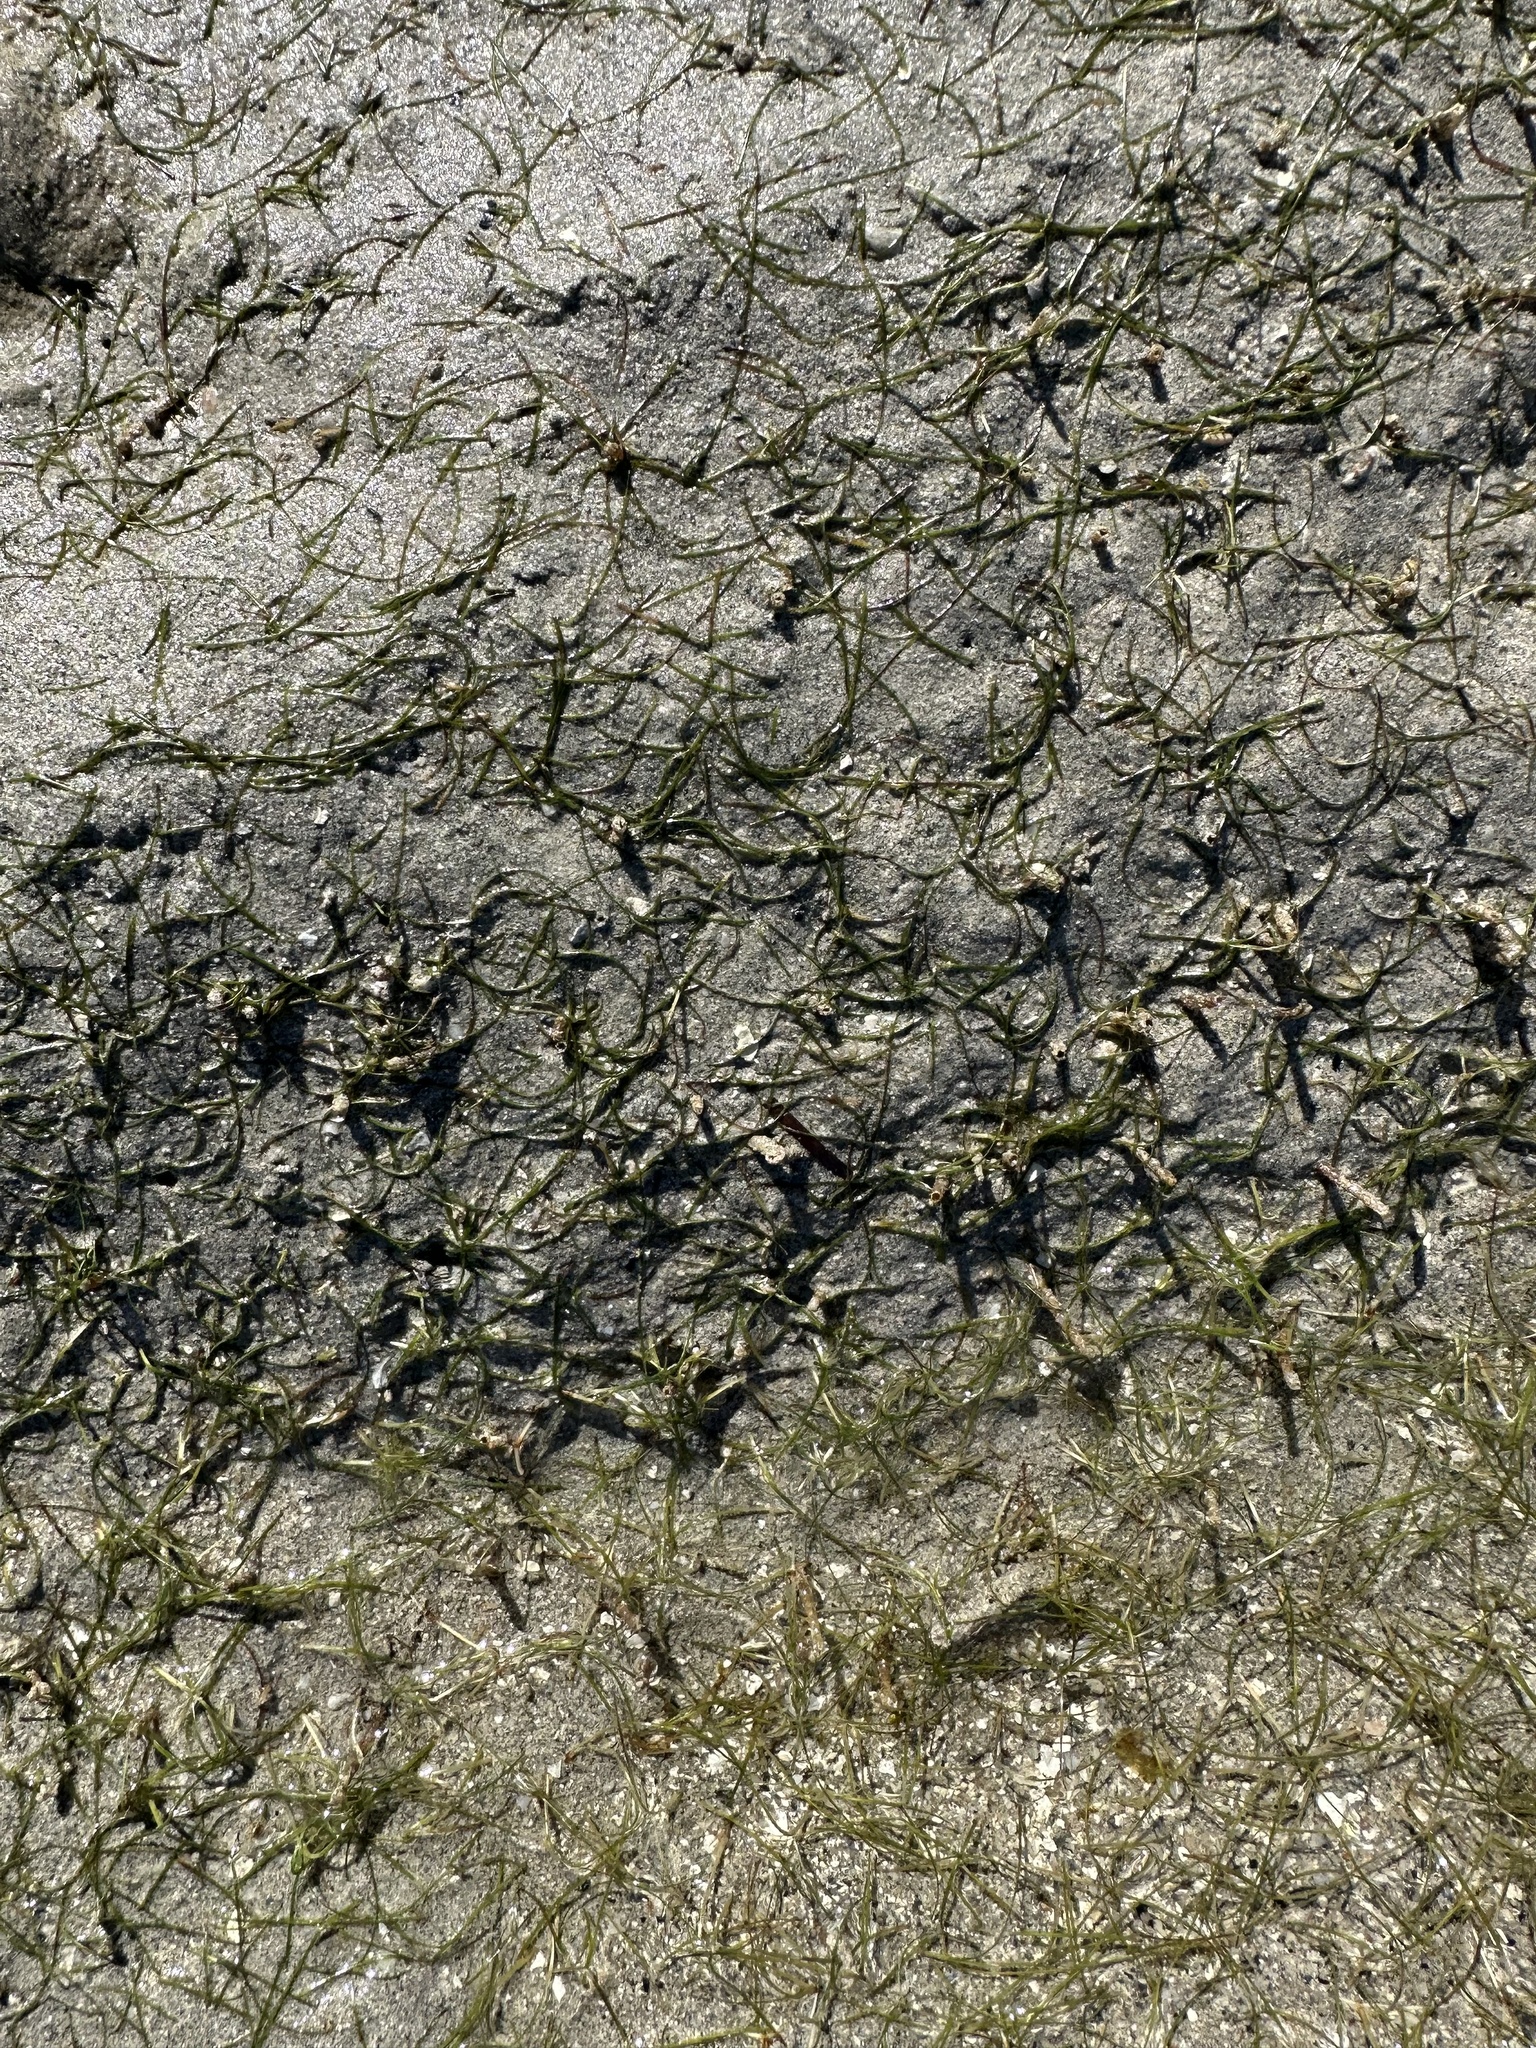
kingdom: Plantae
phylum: Tracheophyta
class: Liliopsida
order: Alismatales
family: Cymodoceaceae
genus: Halodule
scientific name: Halodule uninervis
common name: Narrowleaf seagrass
